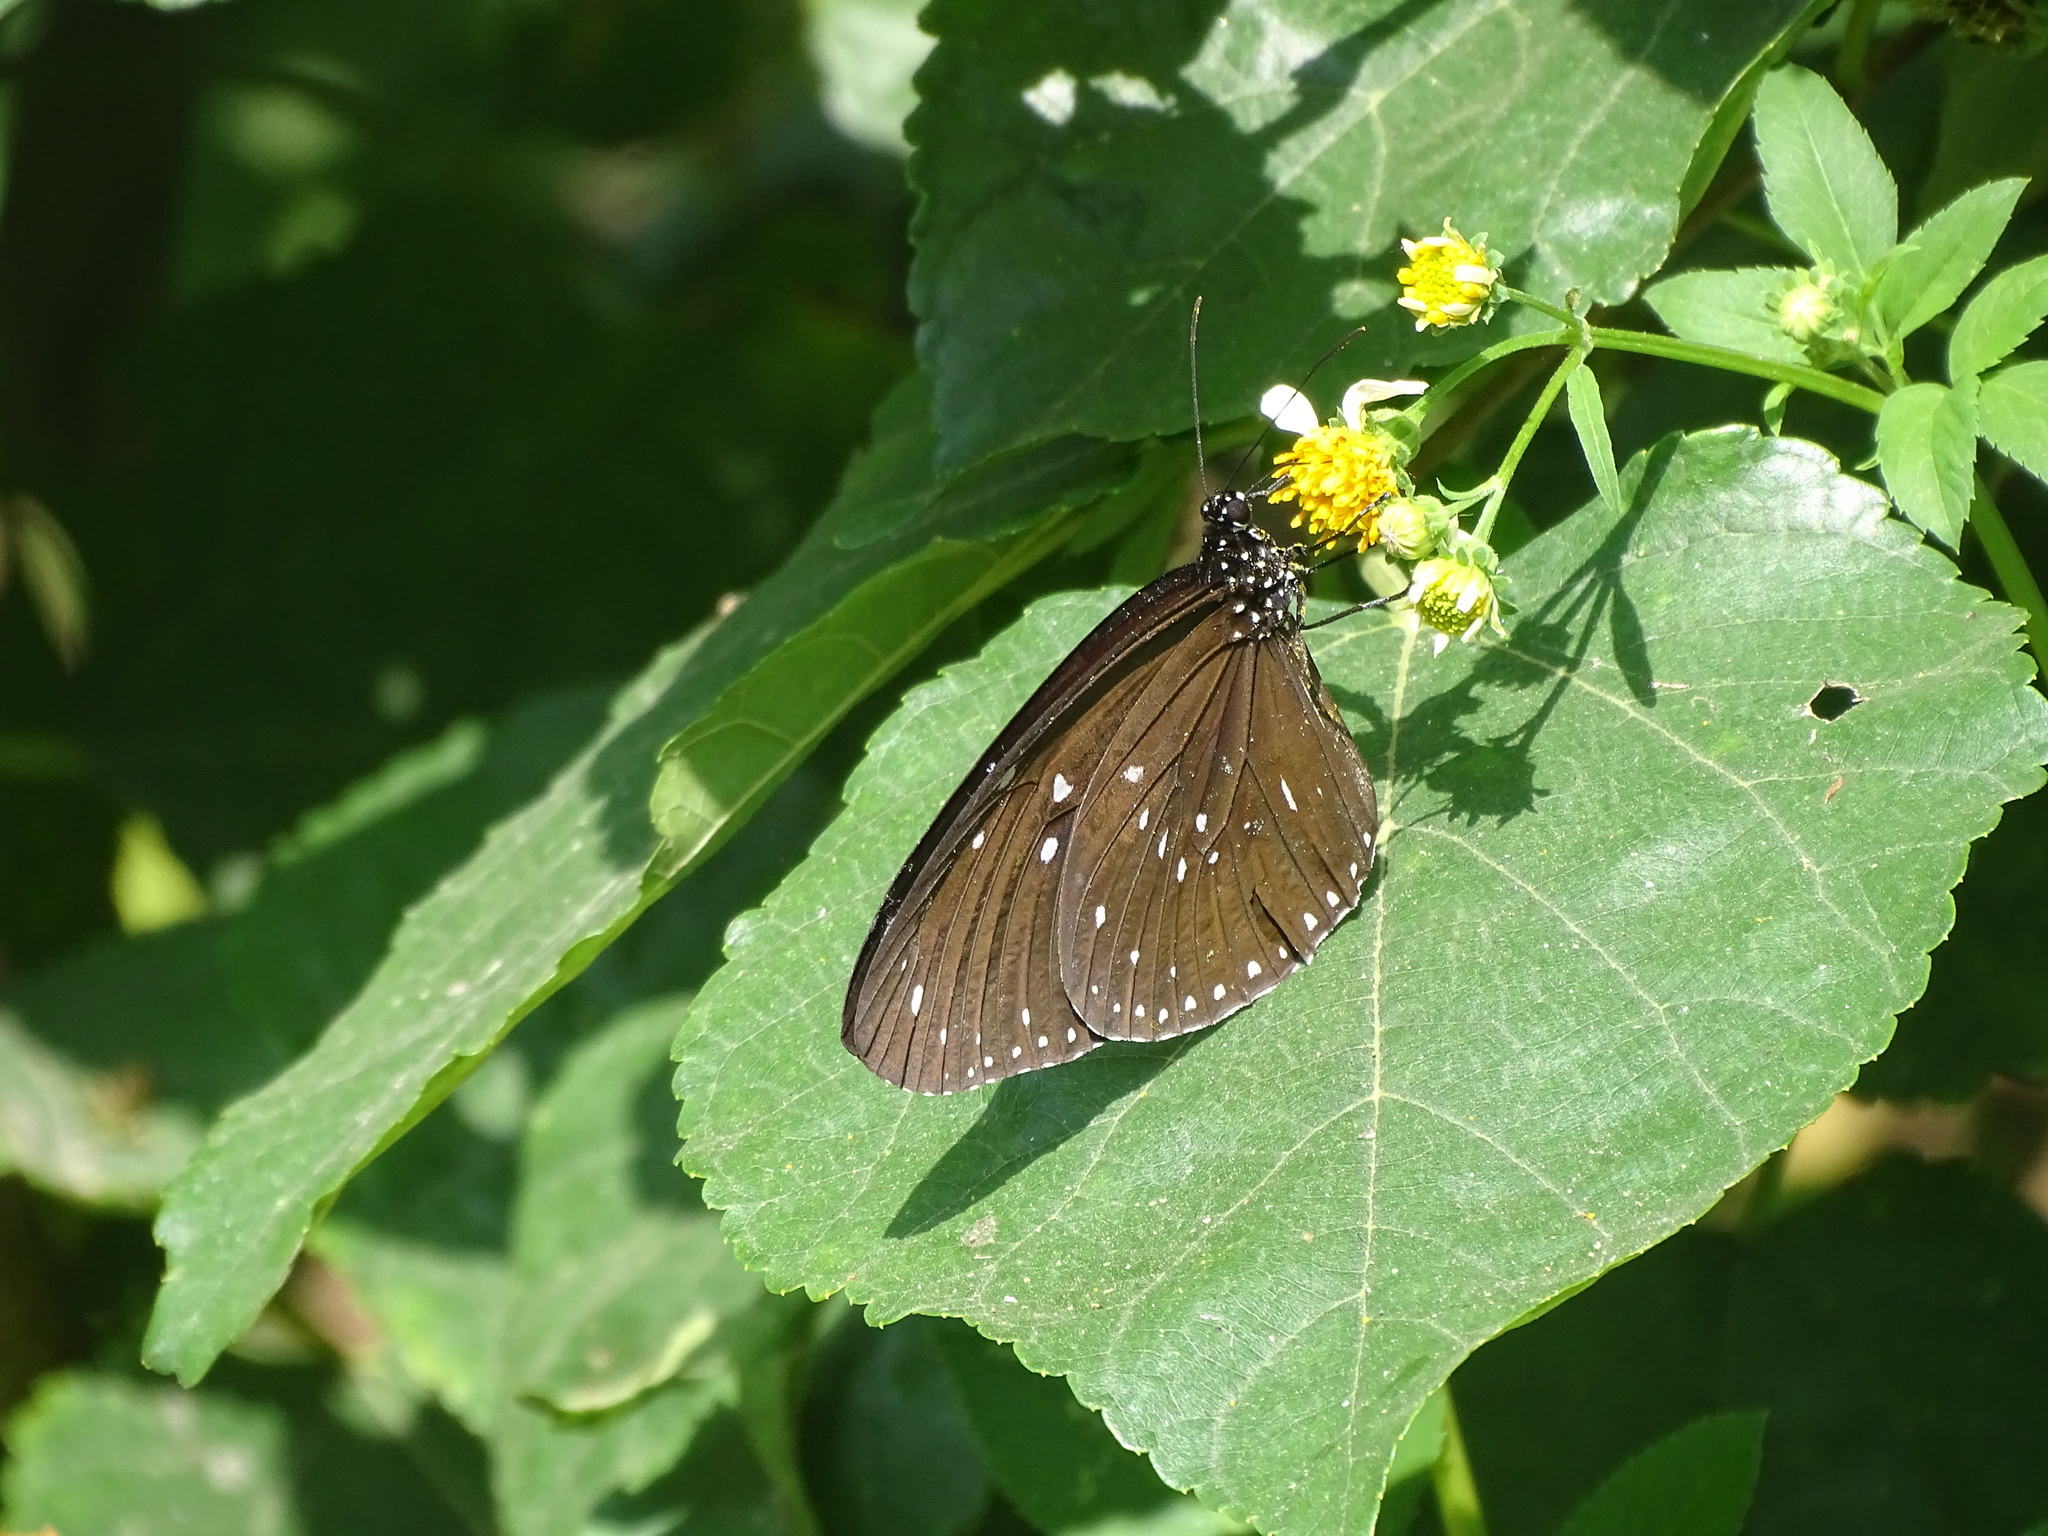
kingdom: Animalia
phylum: Arthropoda
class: Insecta
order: Lepidoptera
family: Nymphalidae
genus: Euploea
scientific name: Euploea sylvester
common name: Double-branded crow butterfly
